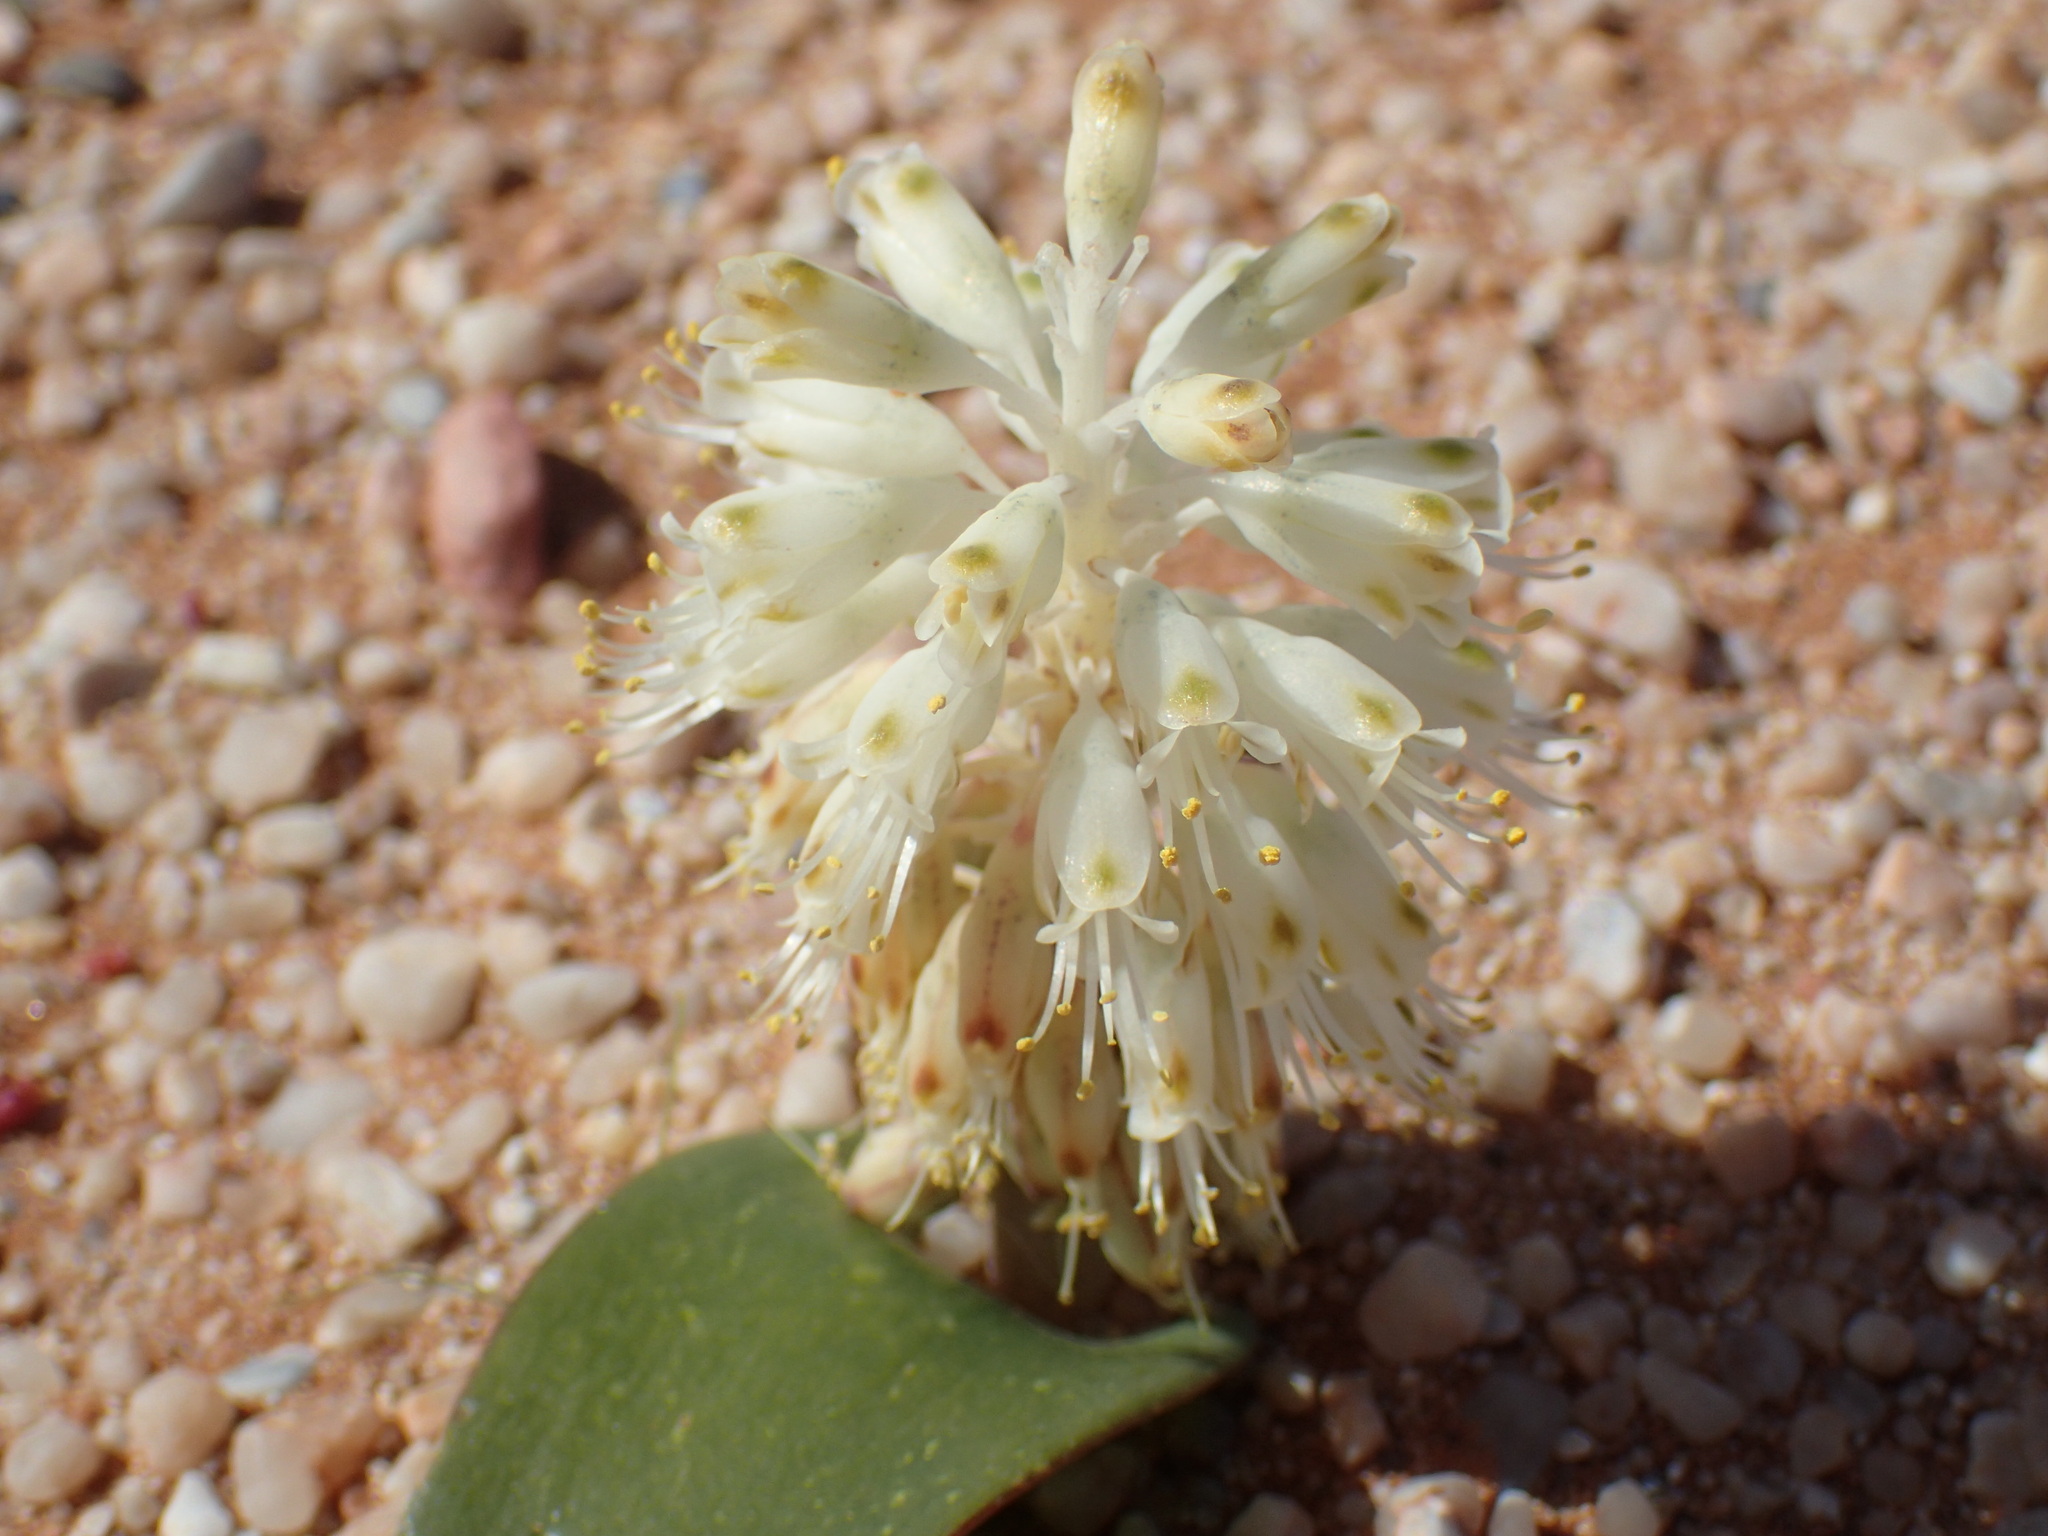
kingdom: Plantae
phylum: Tracheophyta
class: Liliopsida
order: Asparagales
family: Asparagaceae
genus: Lachenalia
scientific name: Lachenalia nutans
